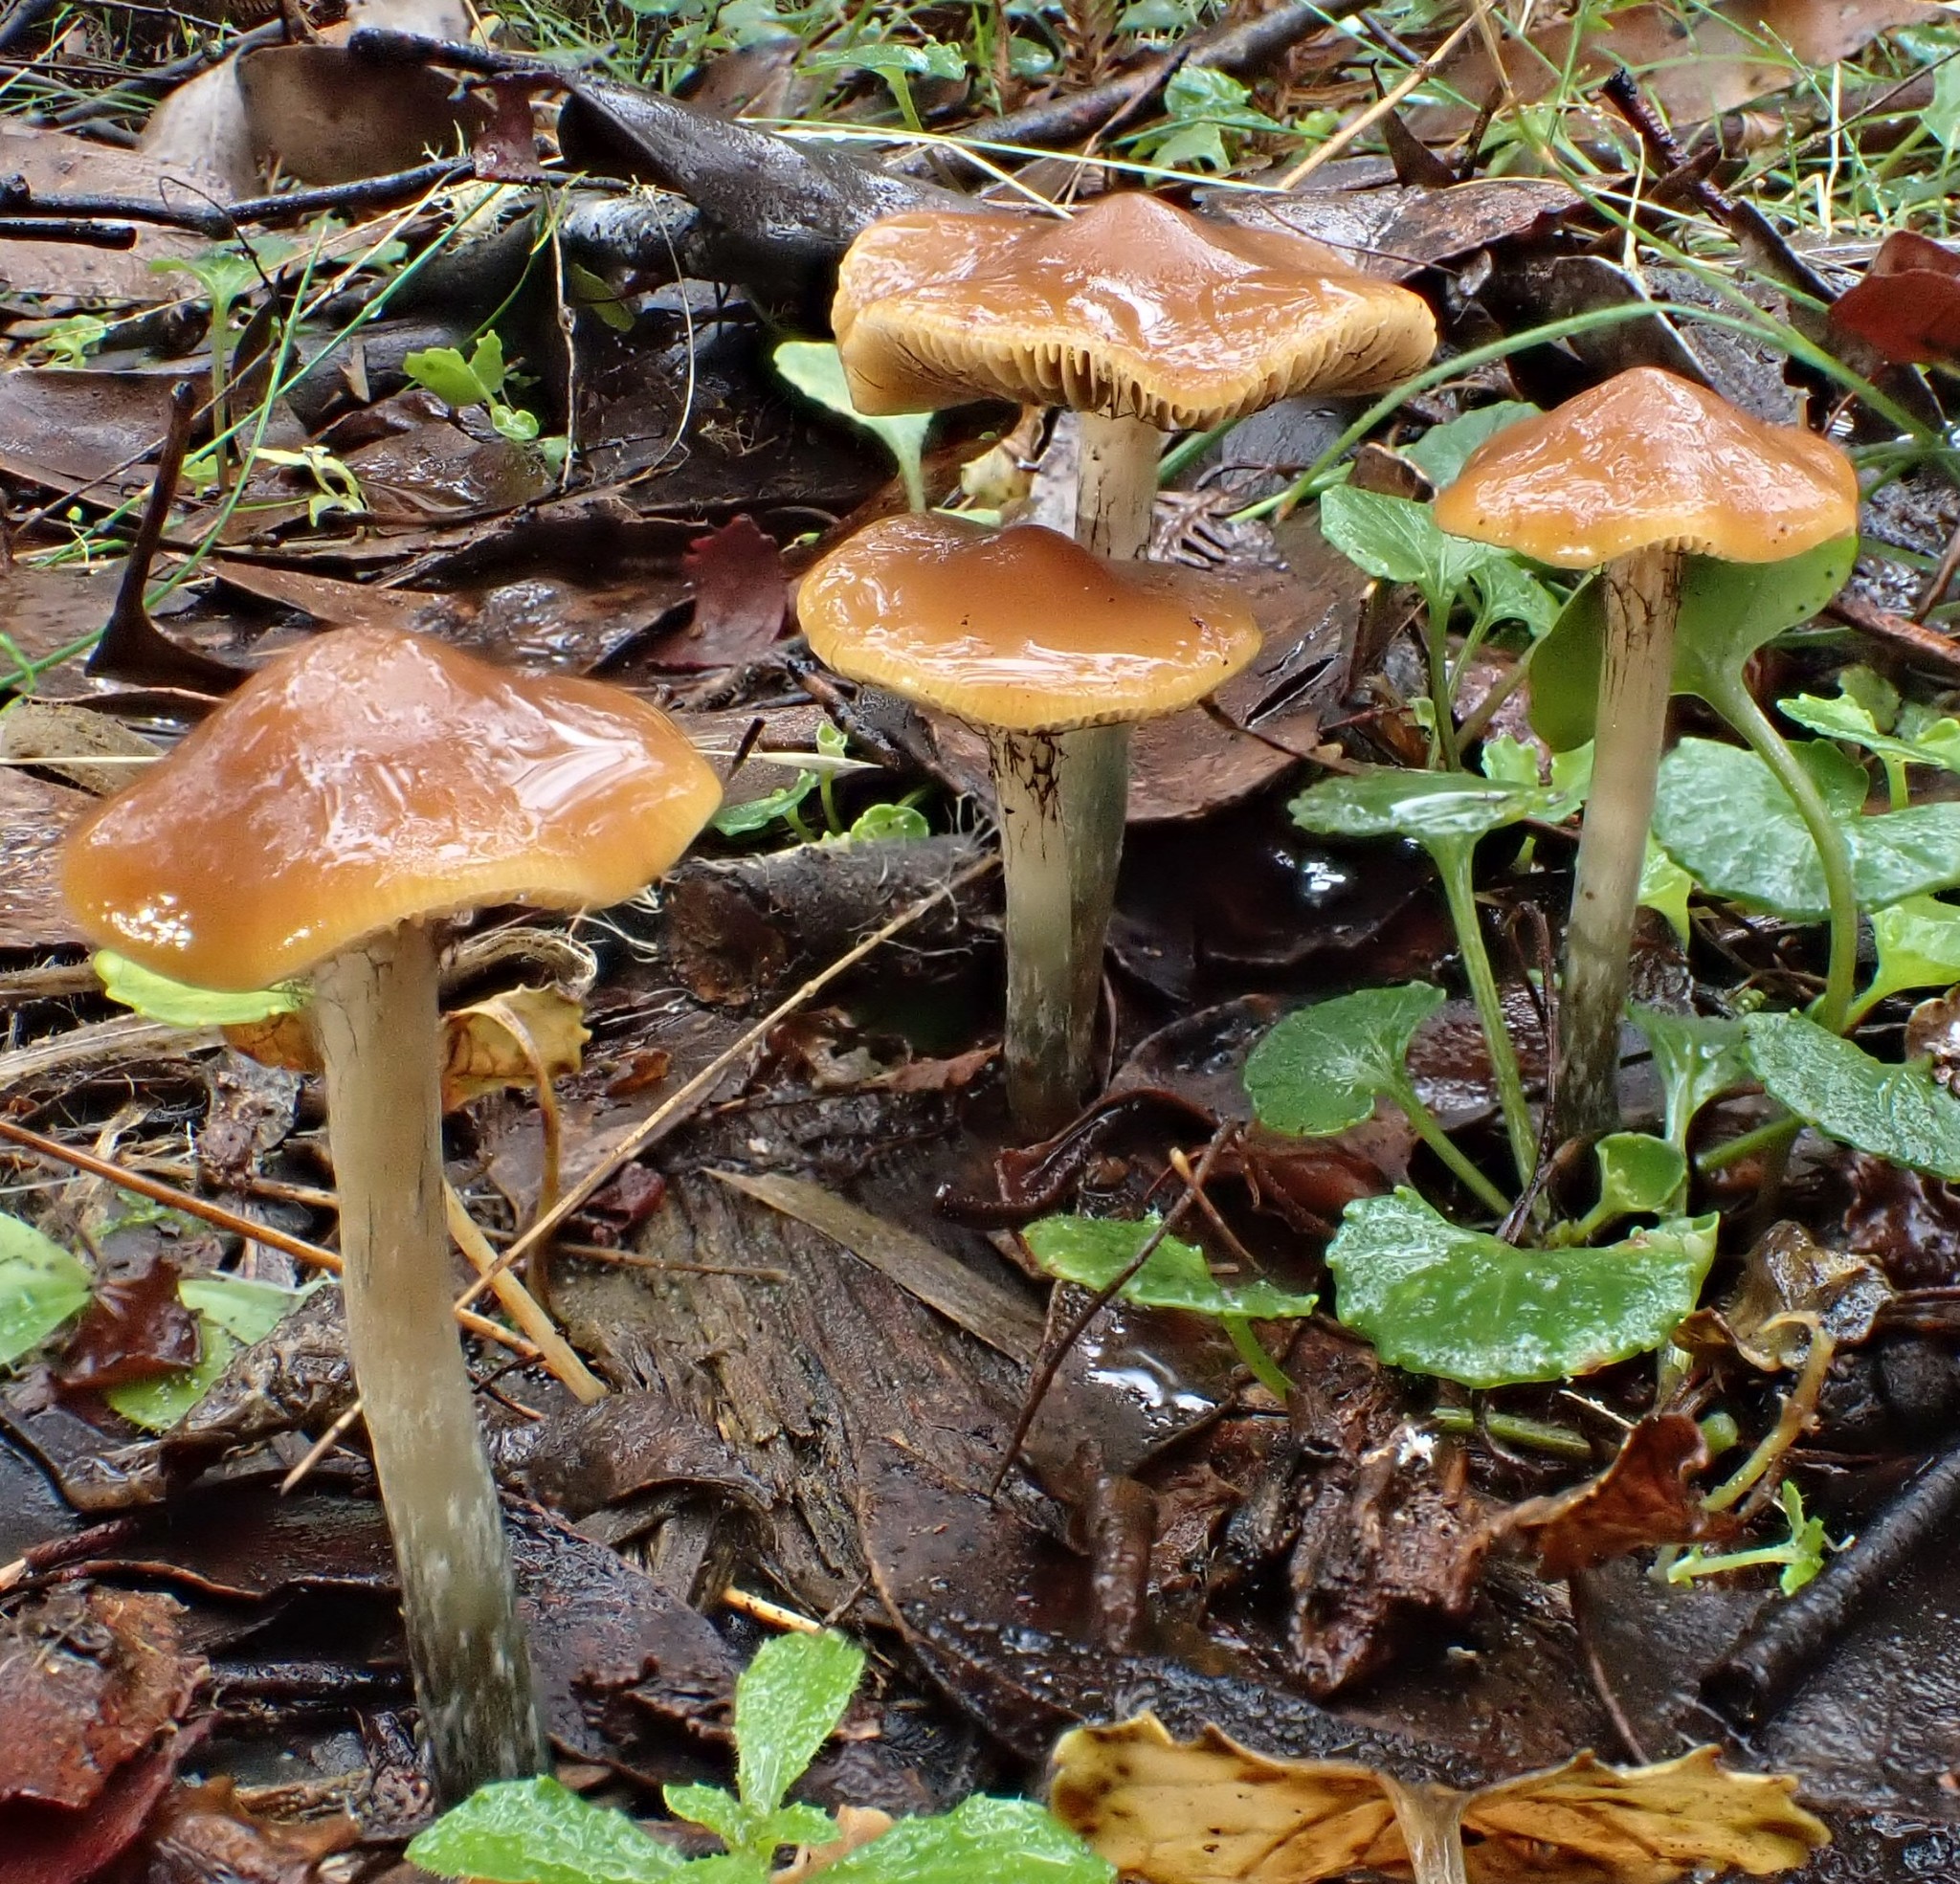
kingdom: Fungi
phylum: Basidiomycota
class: Agaricomycetes
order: Agaricales
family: Hymenogastraceae
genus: Psilocybe
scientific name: Psilocybe subaeruginosa
